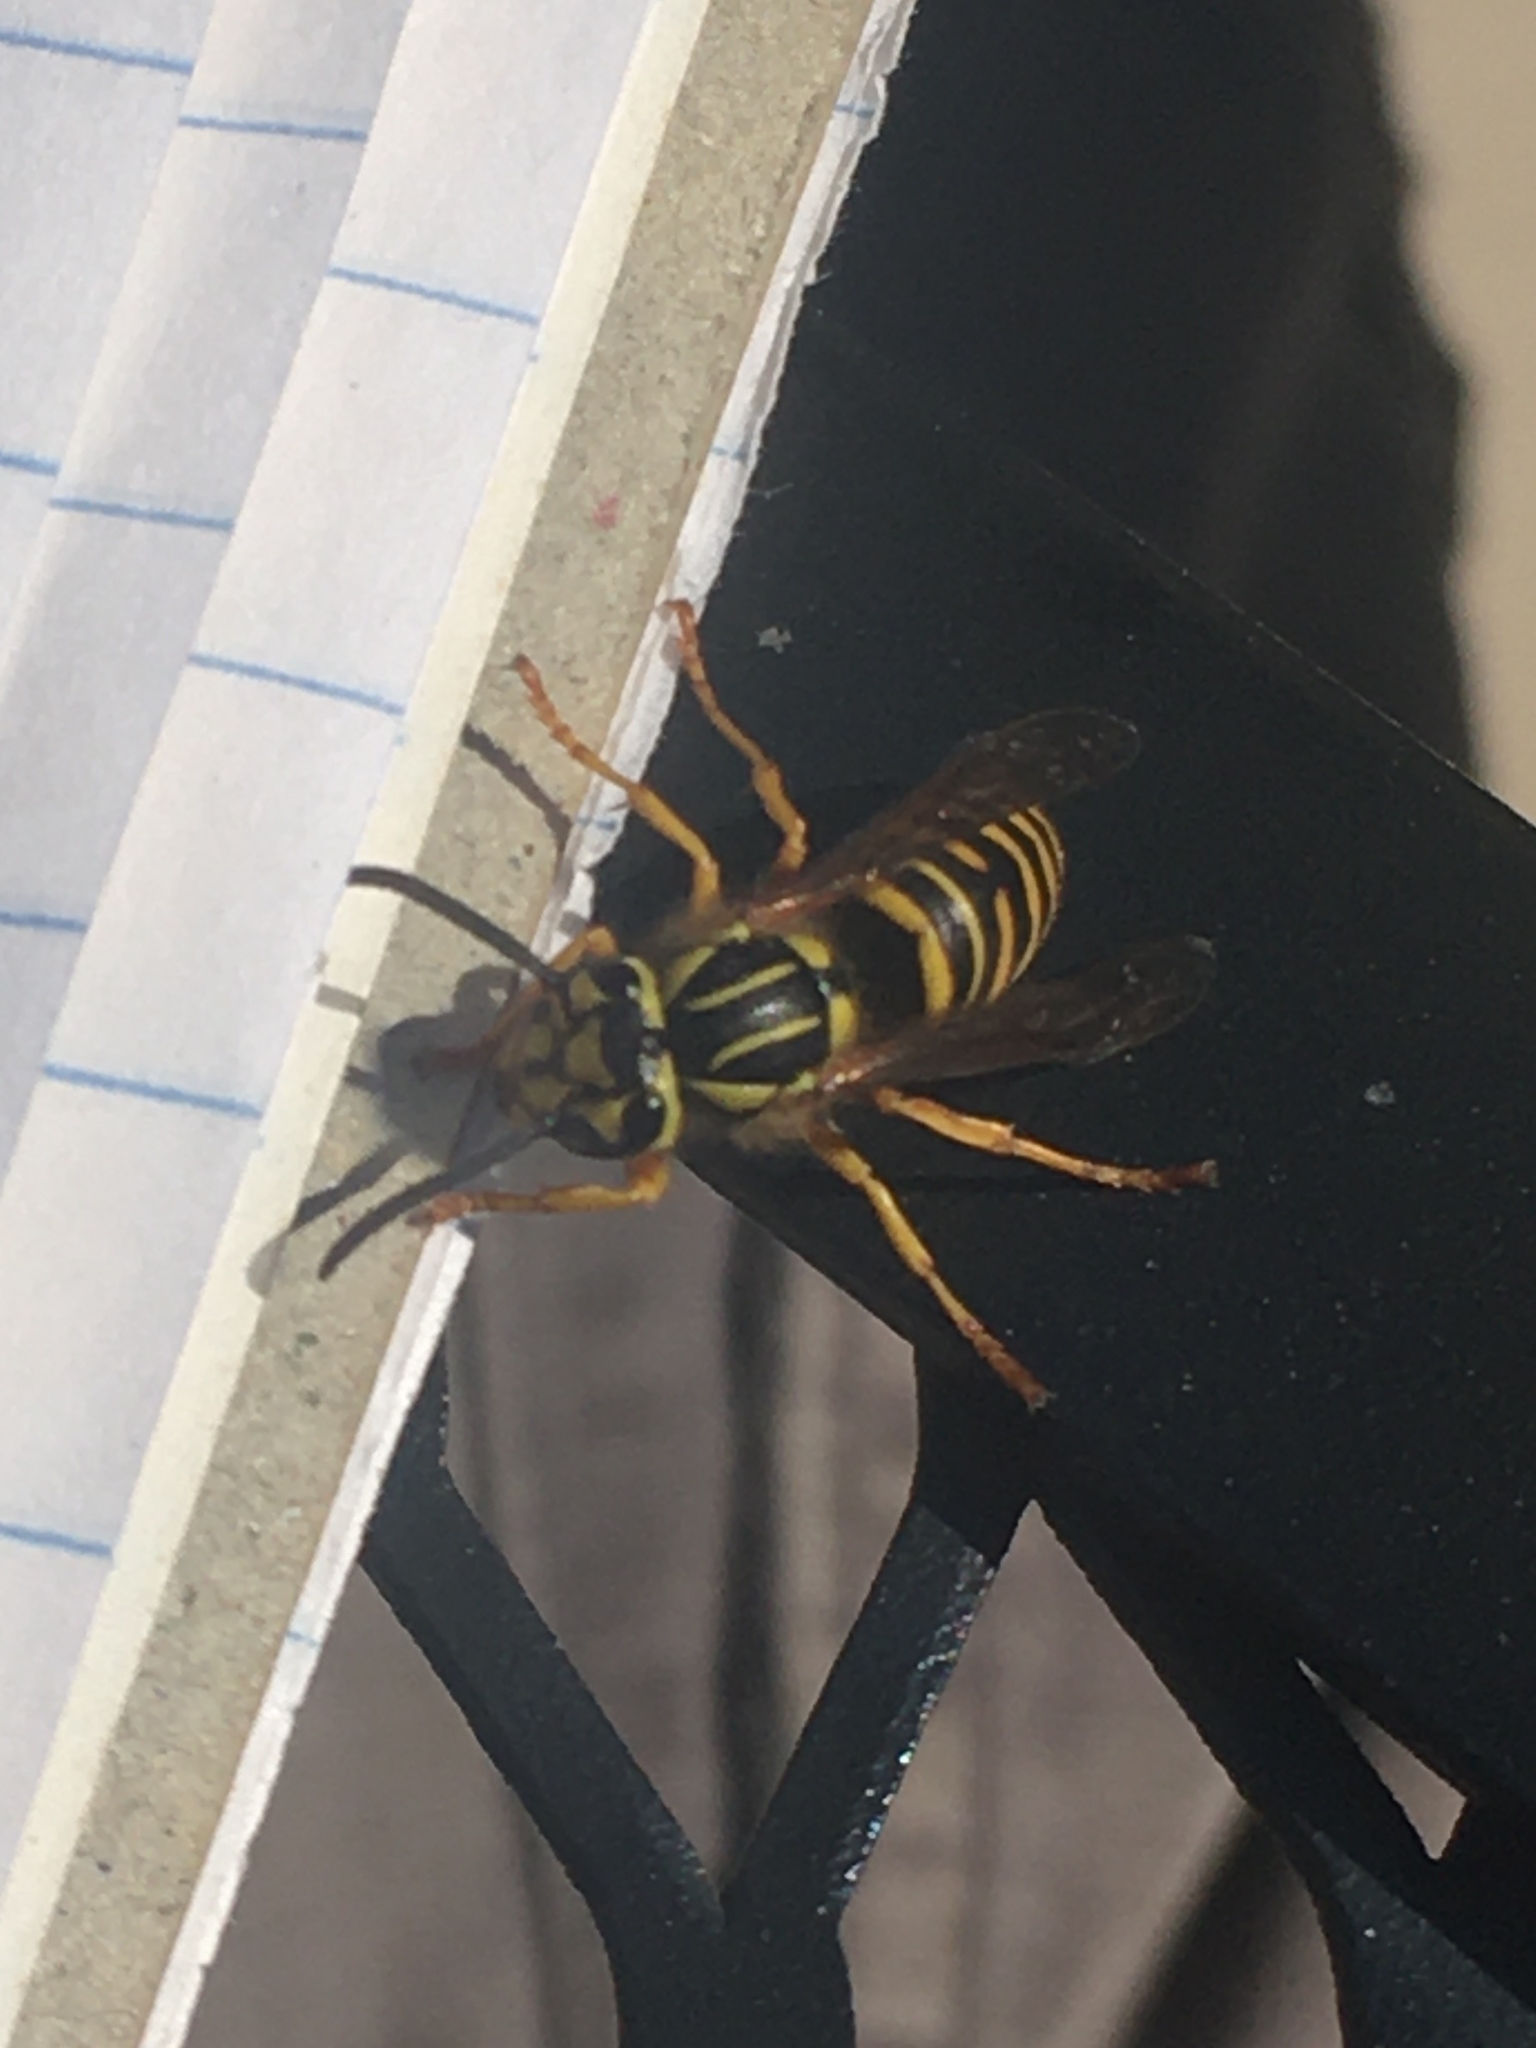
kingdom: Animalia
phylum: Arthropoda
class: Insecta
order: Hymenoptera
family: Vespidae
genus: Vespula
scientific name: Vespula squamosa
